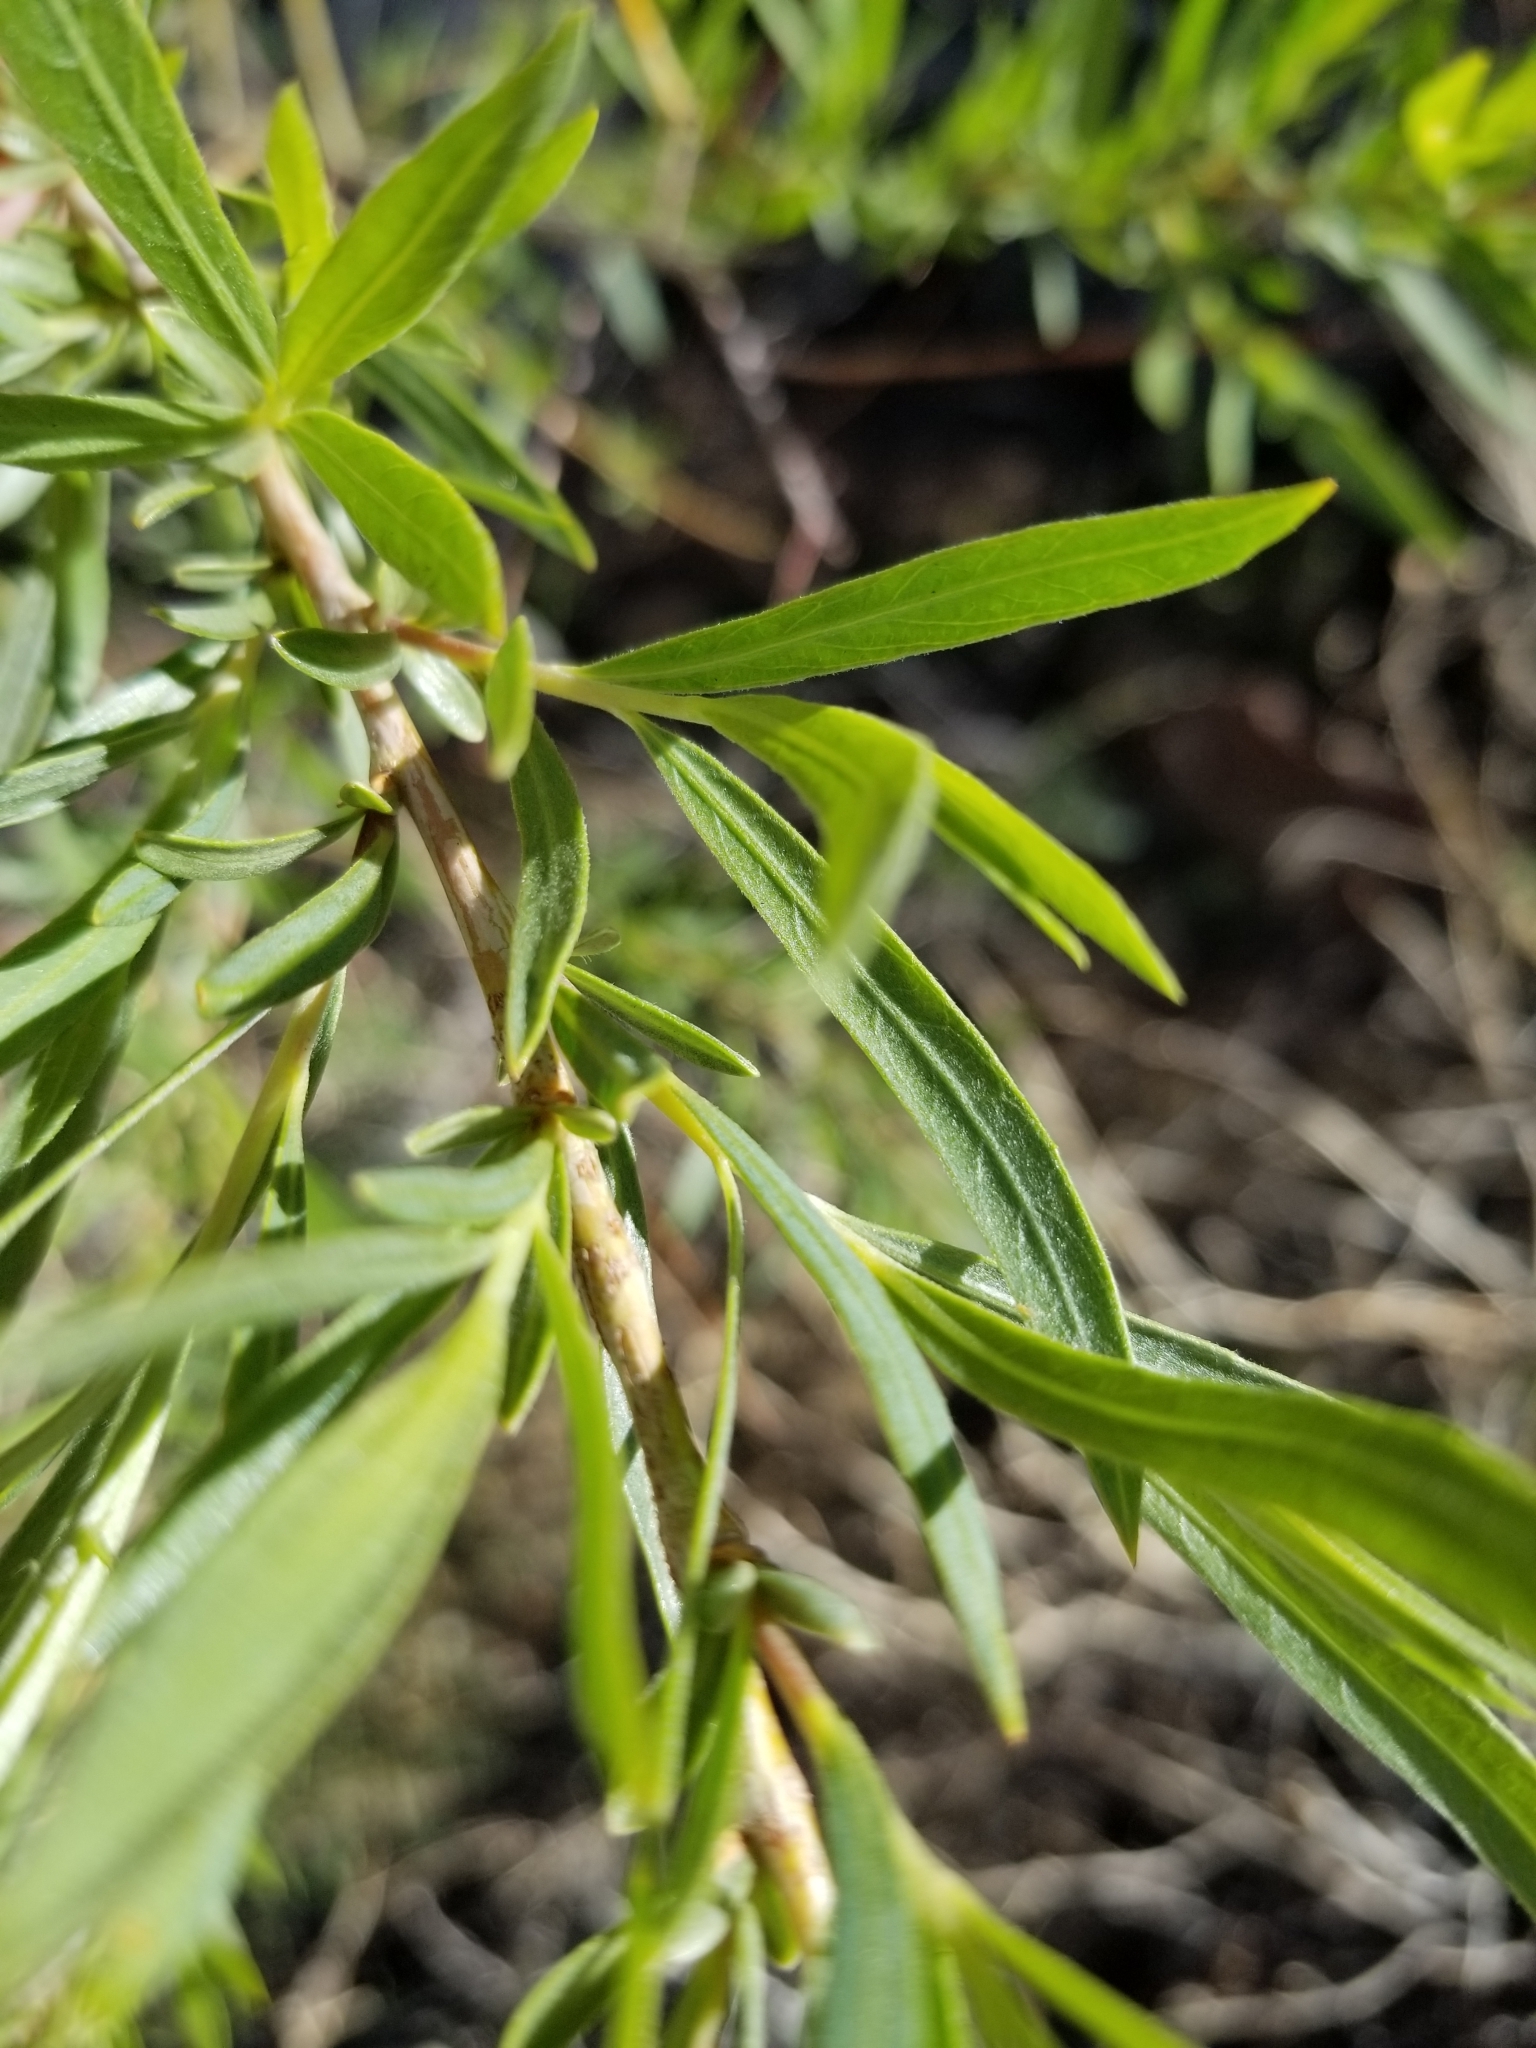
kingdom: Plantae
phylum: Tracheophyta
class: Magnoliopsida
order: Malpighiales
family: Salicaceae
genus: Salix
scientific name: Salix exigua
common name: Coyote willow
